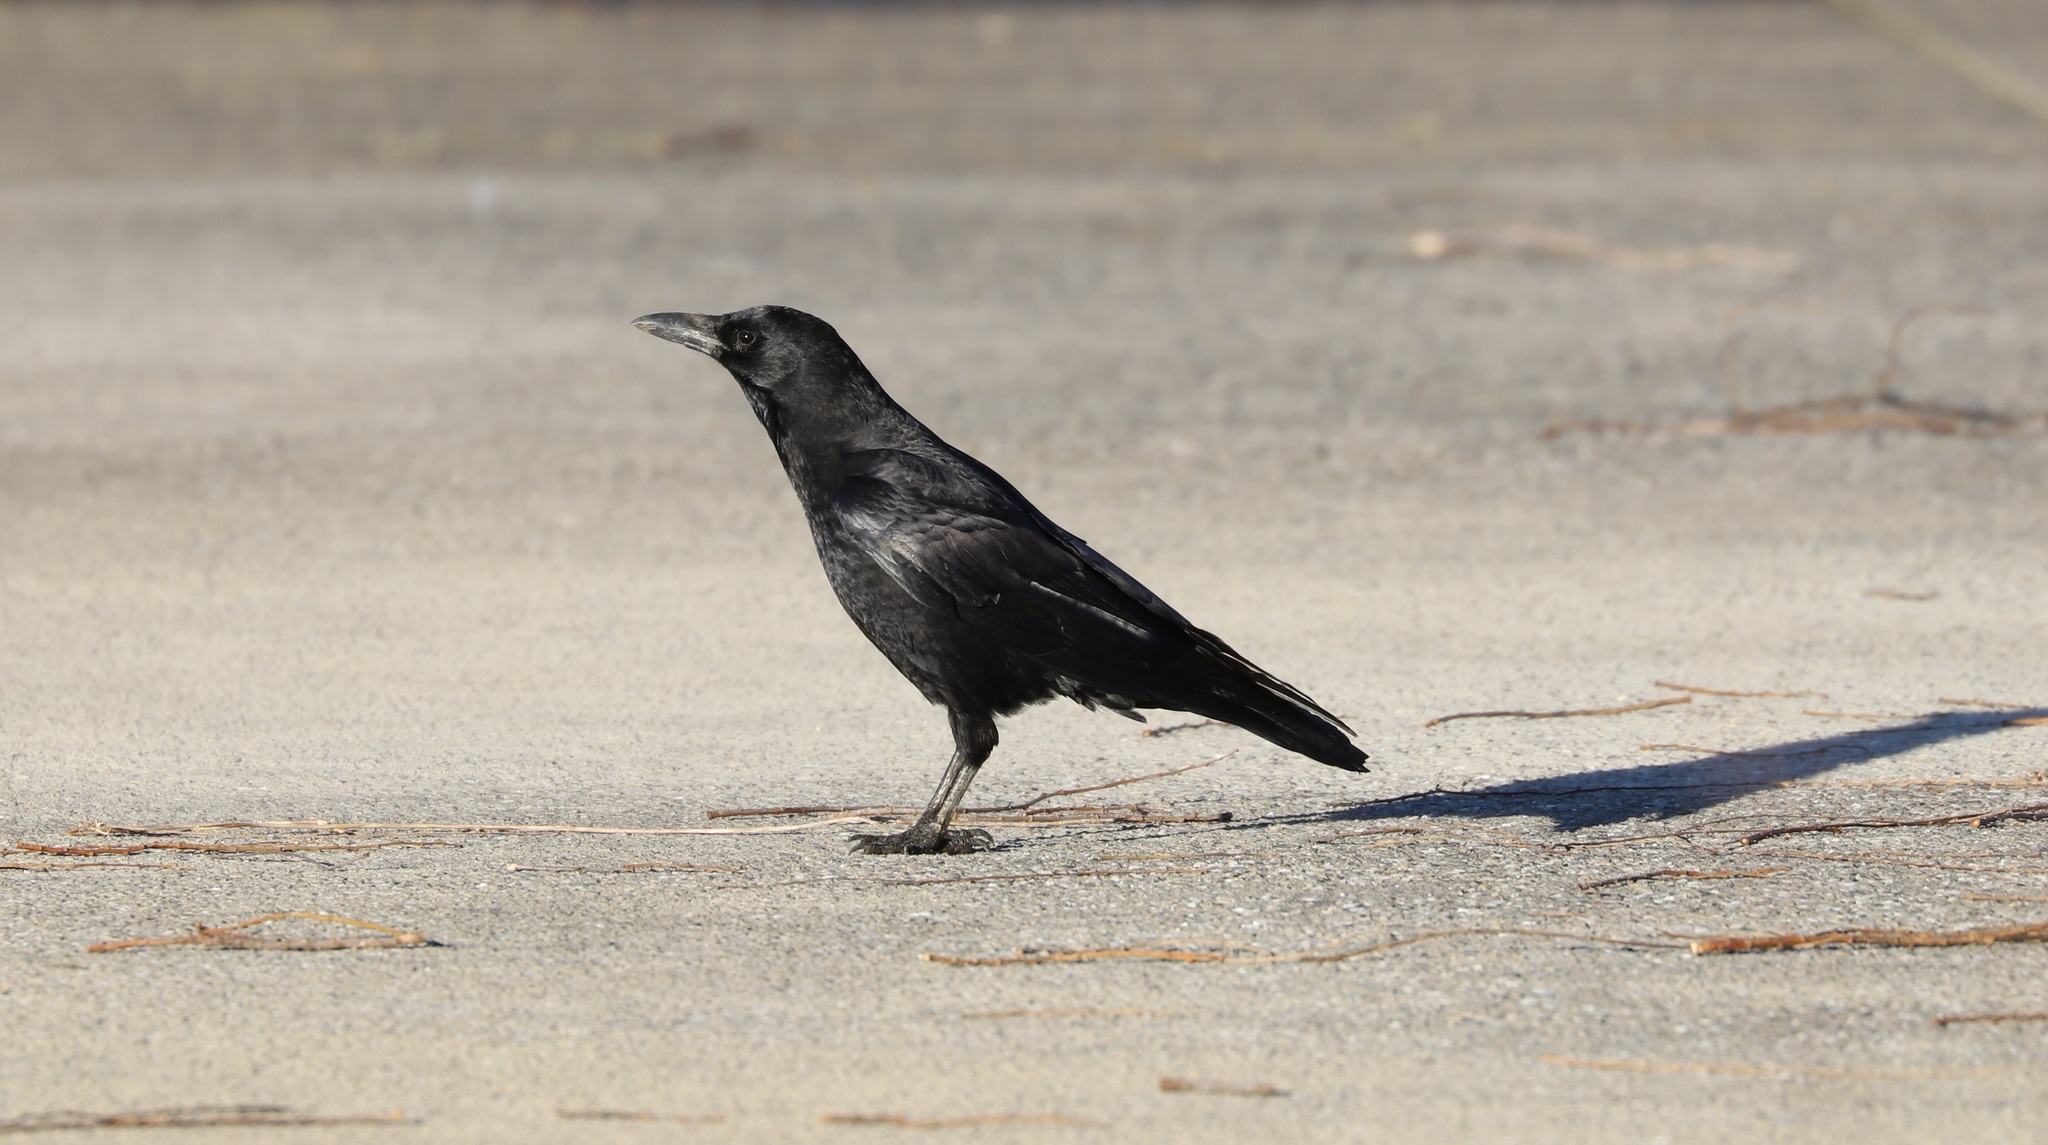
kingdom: Animalia
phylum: Chordata
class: Aves
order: Passeriformes
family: Corvidae
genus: Corvus
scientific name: Corvus corone
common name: Carrion crow
